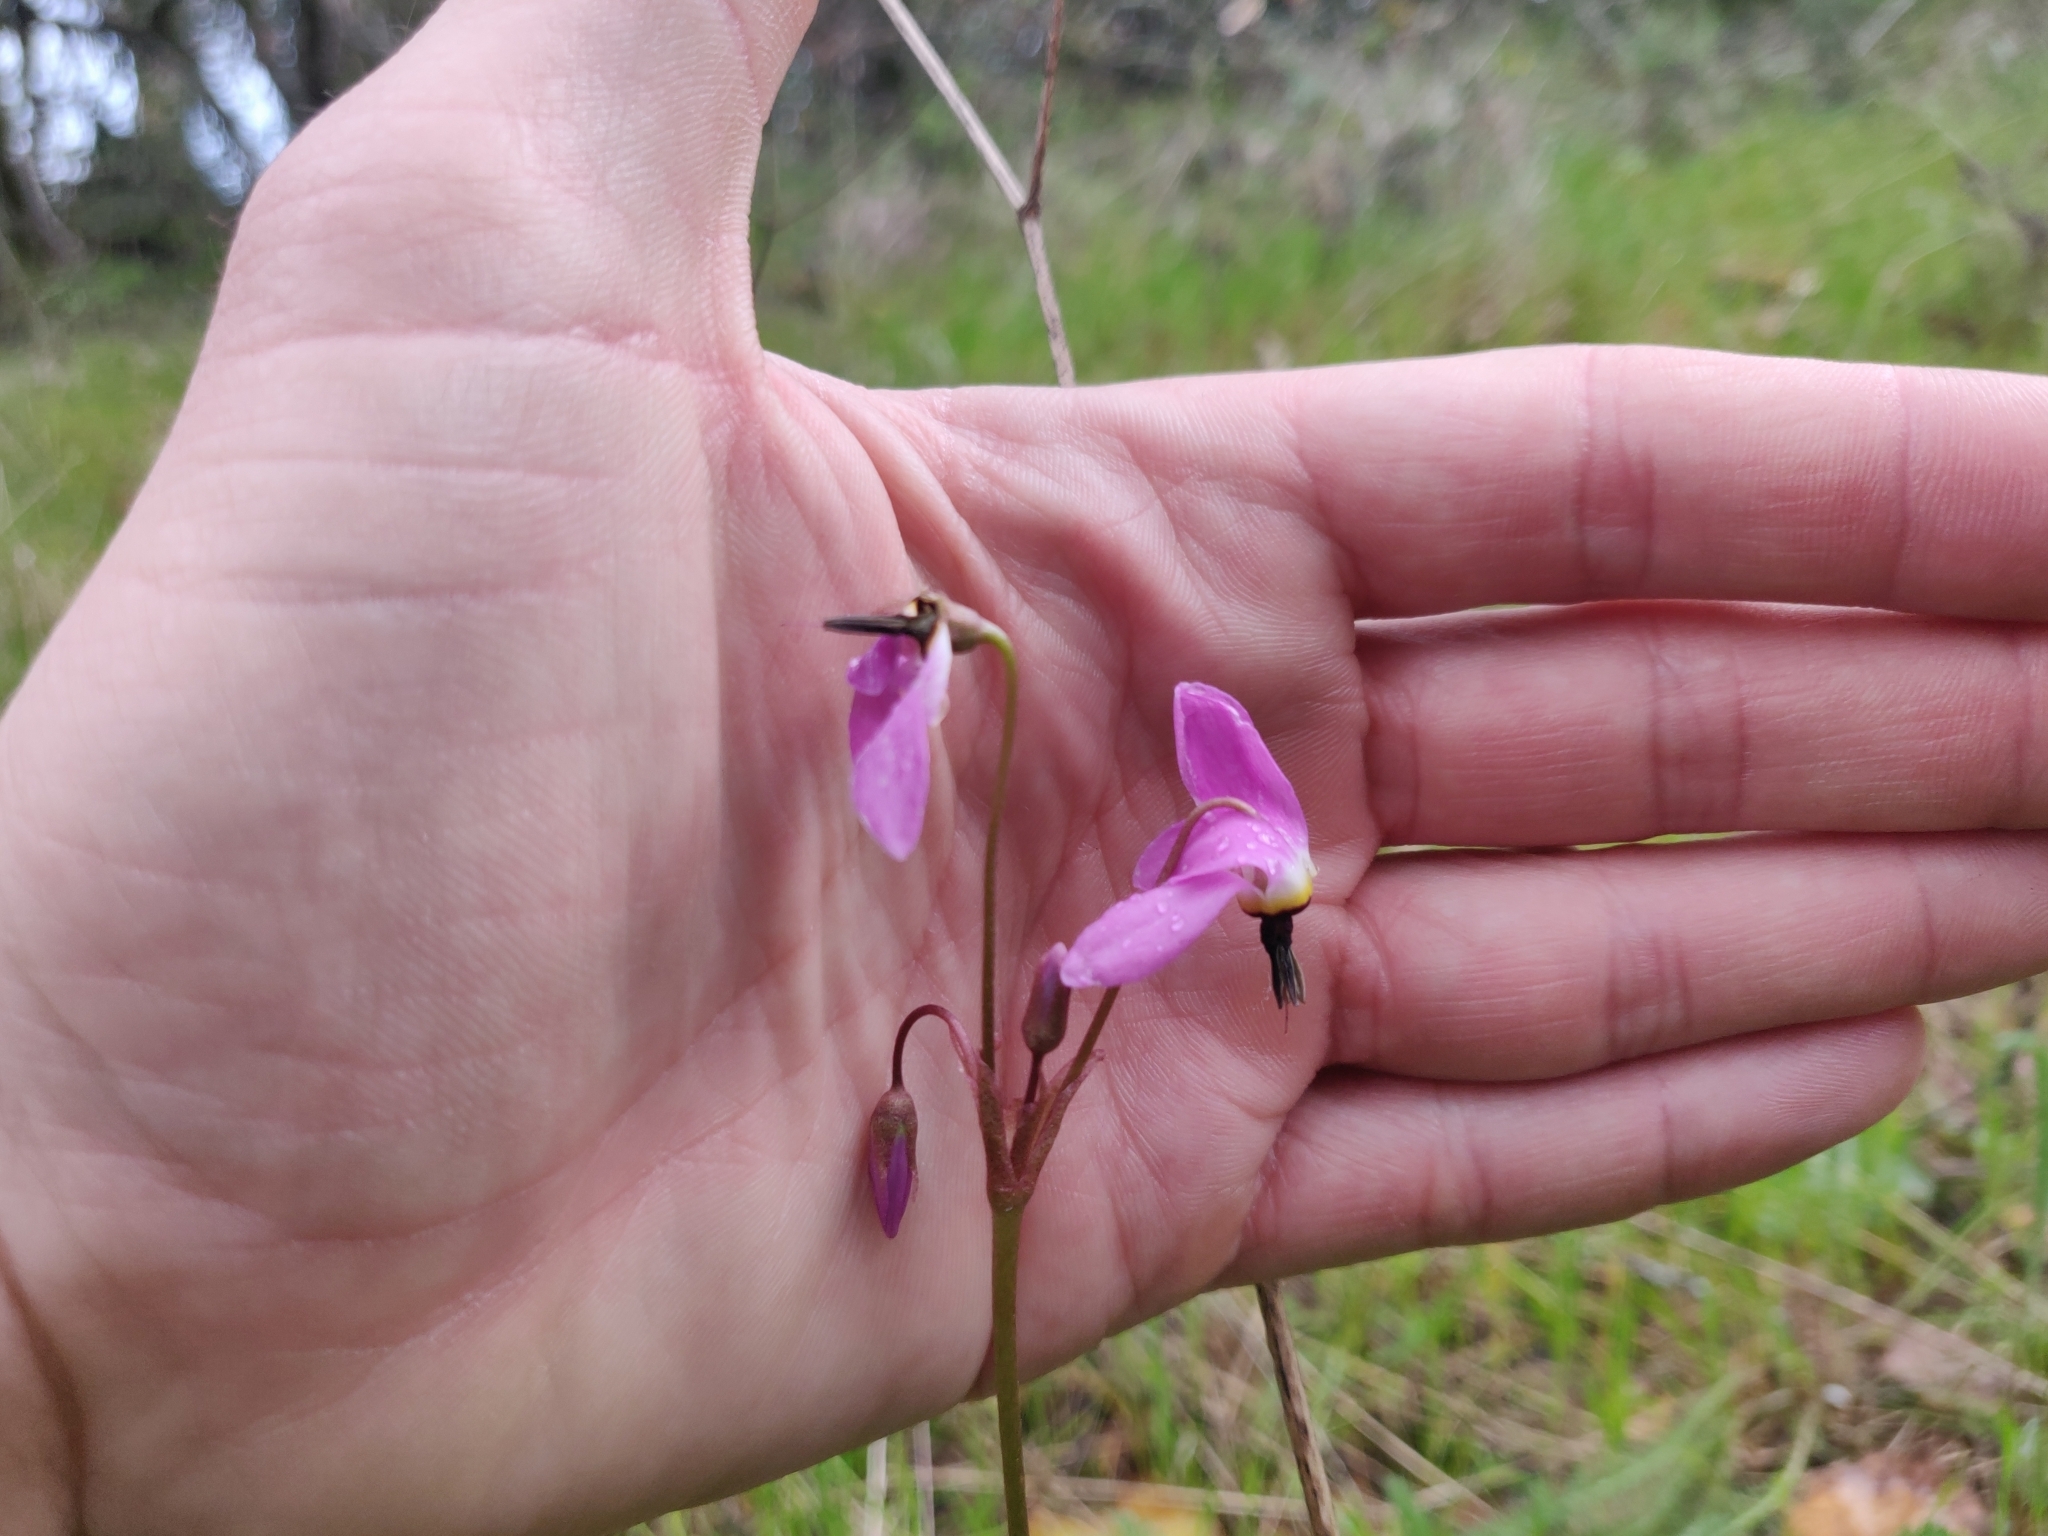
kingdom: Plantae
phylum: Tracheophyta
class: Magnoliopsida
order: Ericales
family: Primulaceae
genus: Dodecatheon
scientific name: Dodecatheon hendersonii
